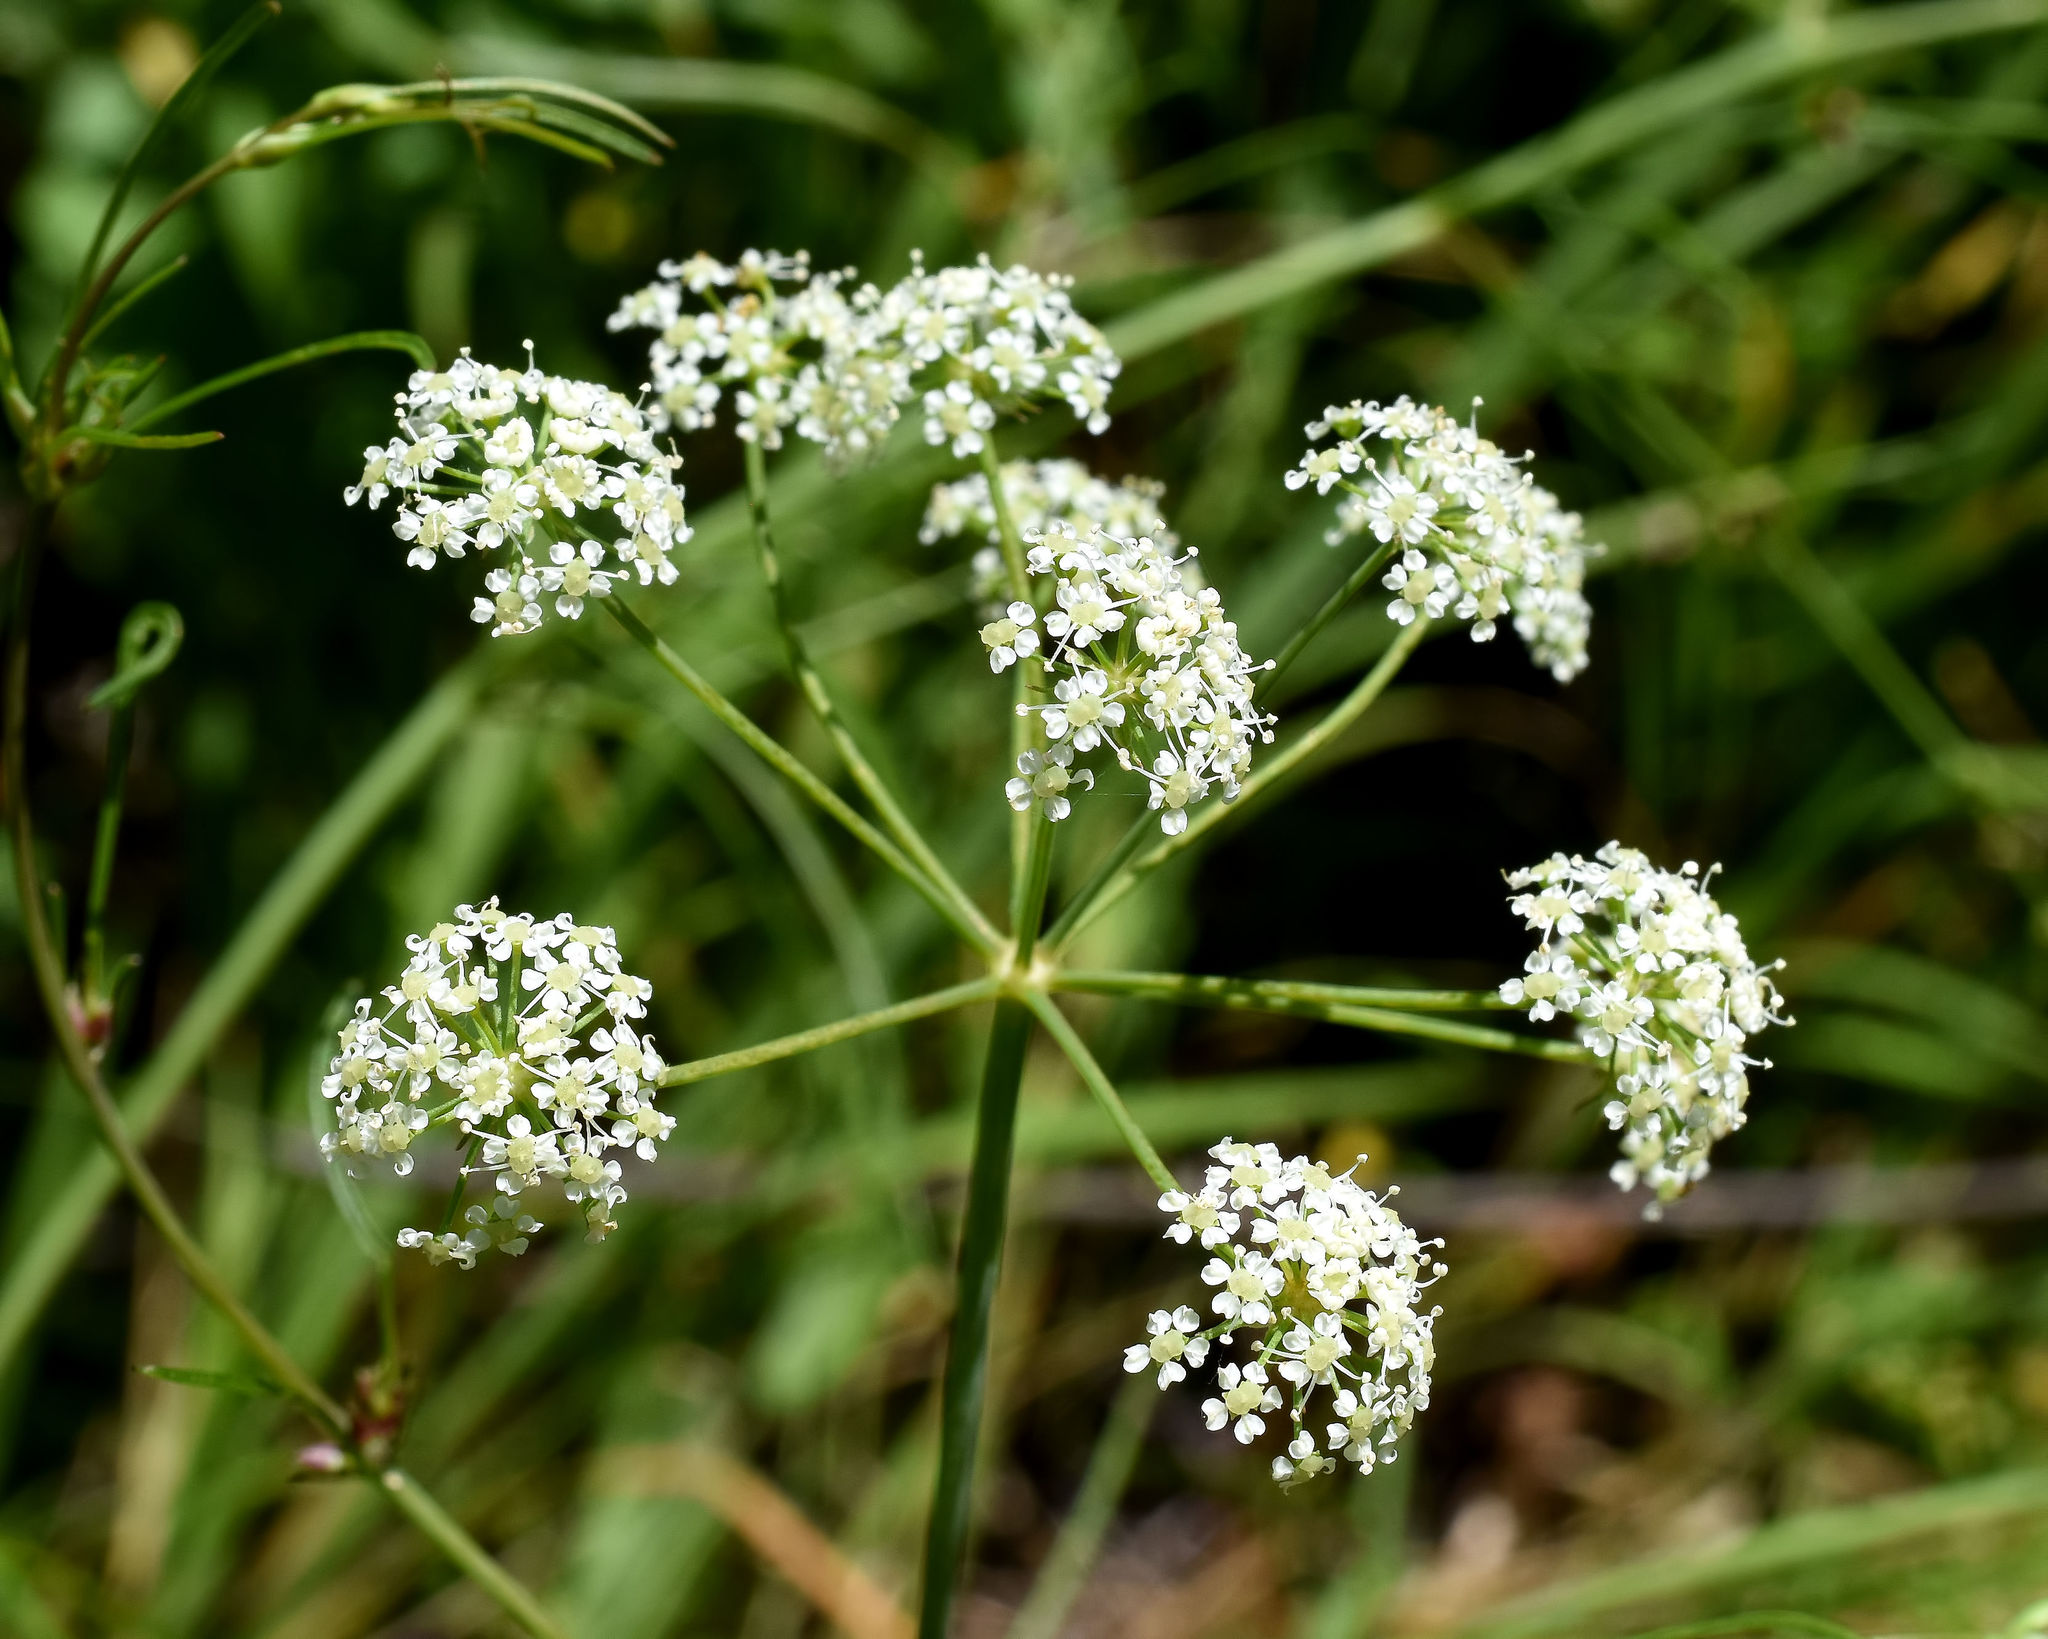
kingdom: Plantae
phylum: Tracheophyta
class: Magnoliopsida
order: Apiales
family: Apiaceae
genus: Cicuta
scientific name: Cicuta bulbifera
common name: Bulb-bearing water-hemlock
